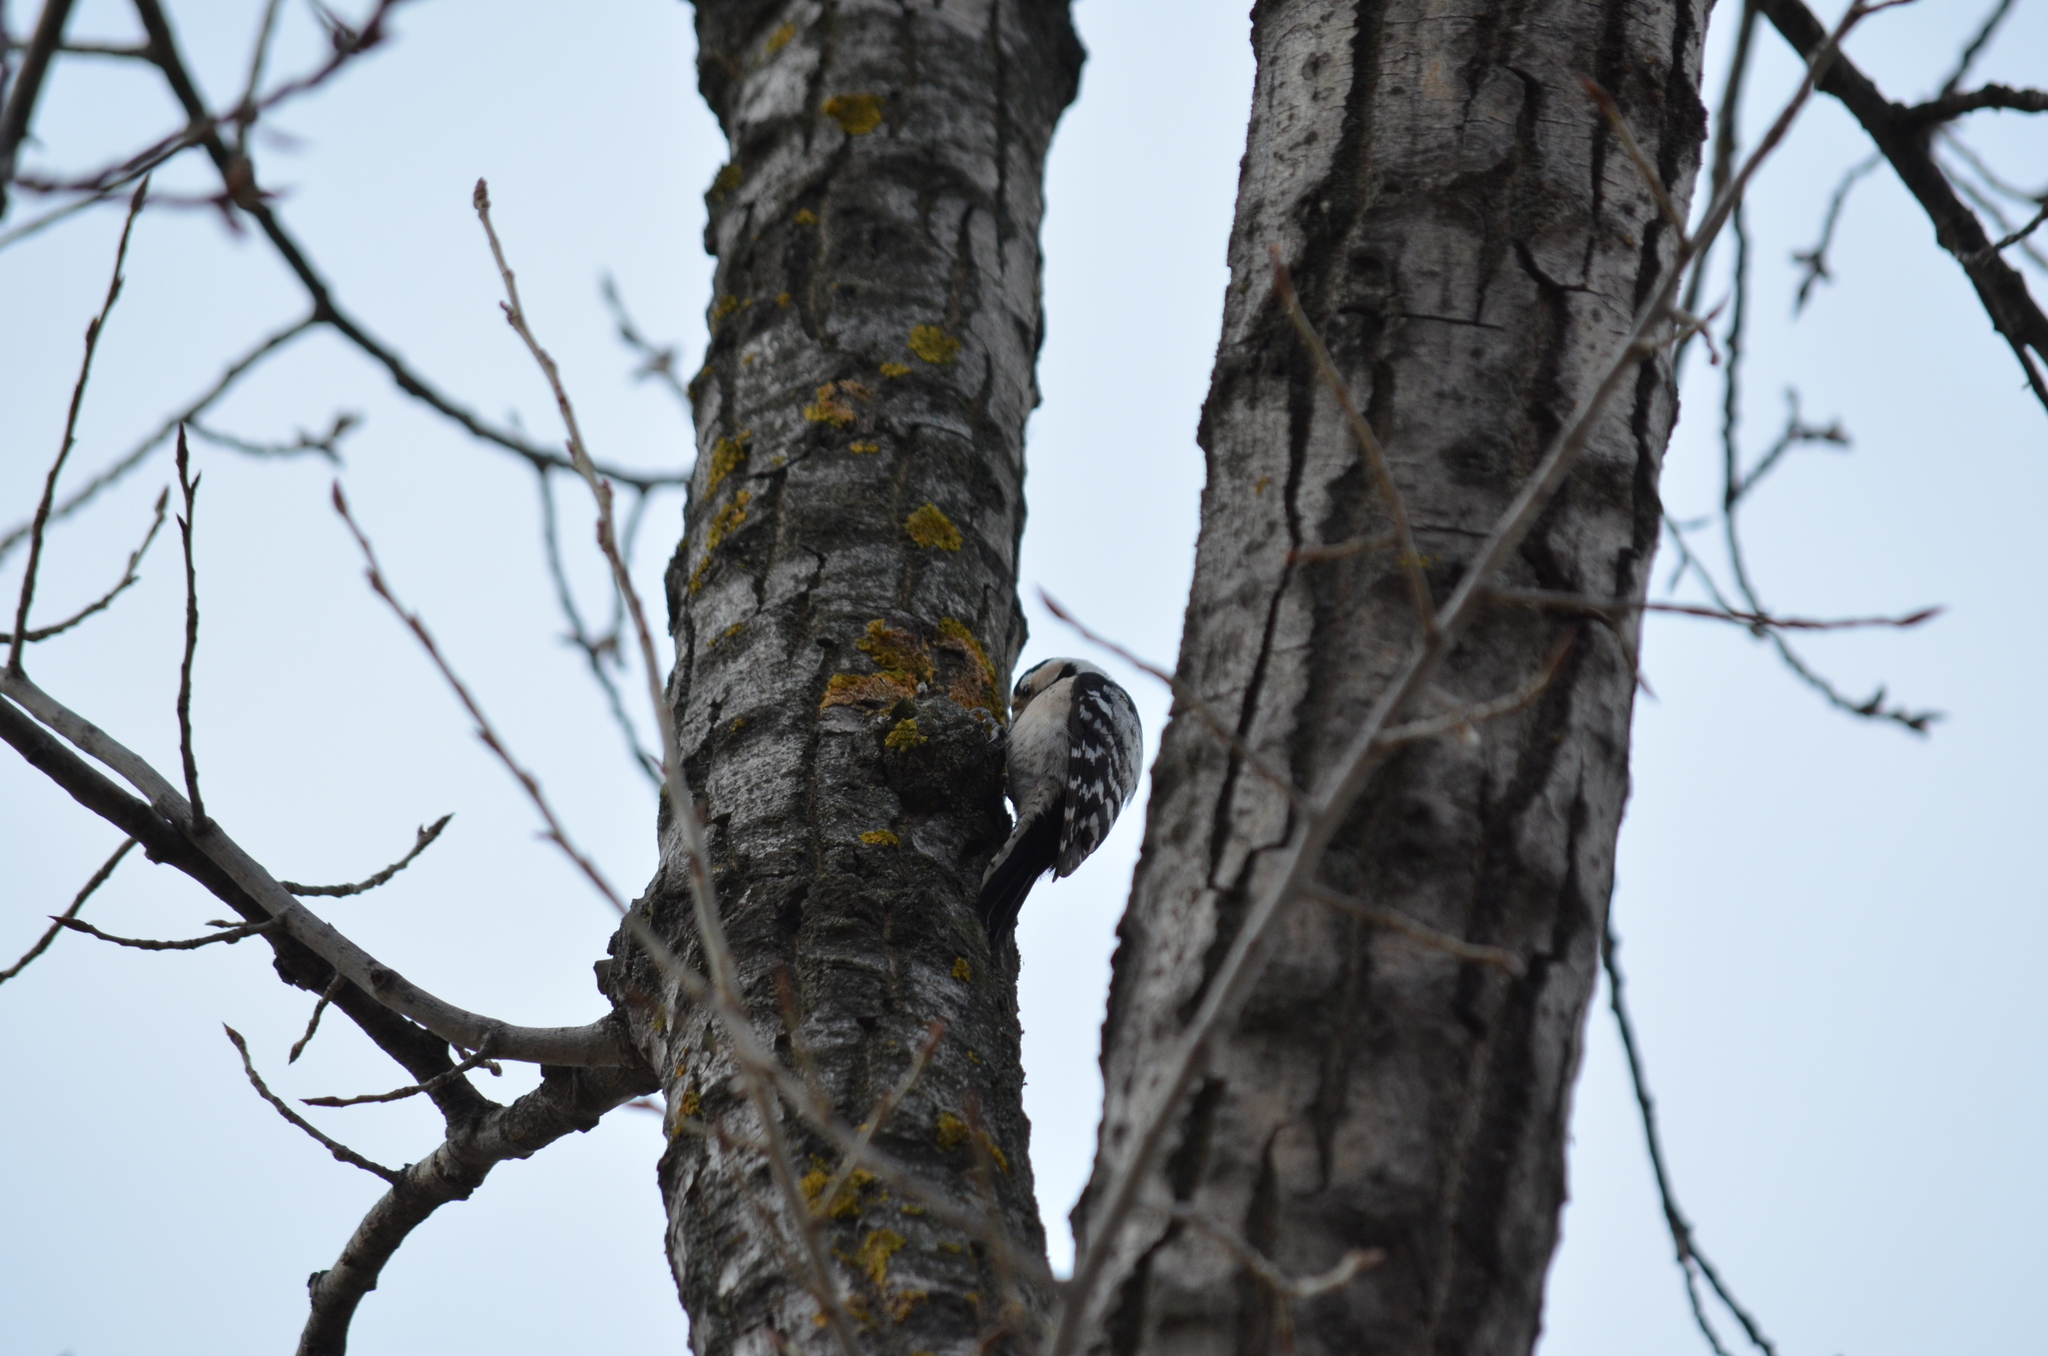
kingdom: Animalia
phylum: Chordata
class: Aves
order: Piciformes
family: Picidae
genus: Dryobates
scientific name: Dryobates minor
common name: Lesser spotted woodpecker
